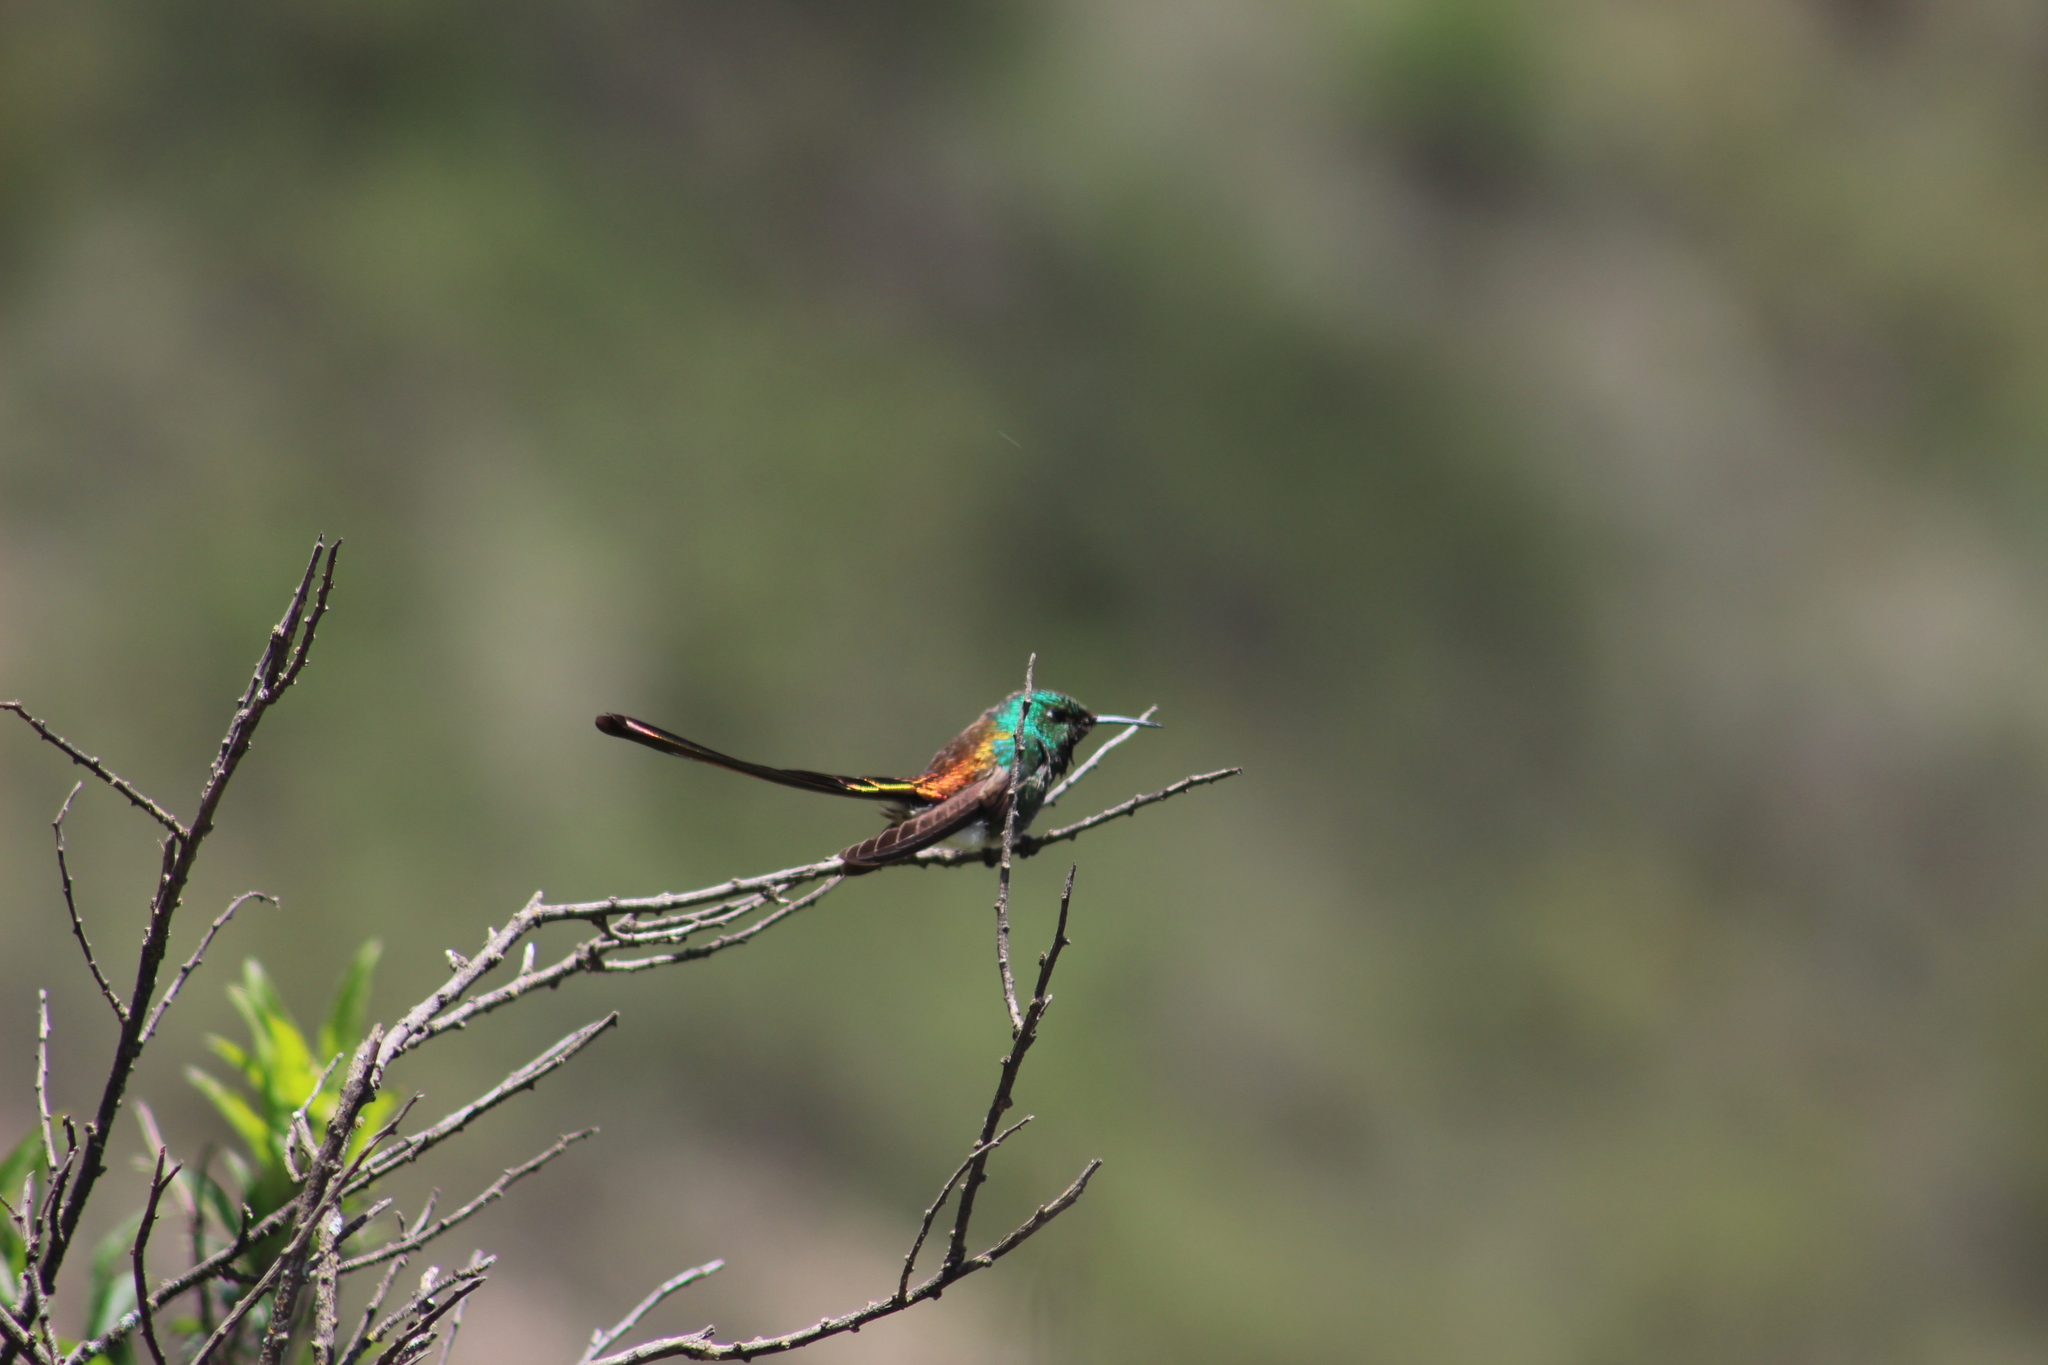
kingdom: Animalia
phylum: Chordata
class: Aves
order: Apodiformes
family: Trochilidae
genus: Sappho
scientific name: Sappho sparganurus
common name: Red-tailed comet
